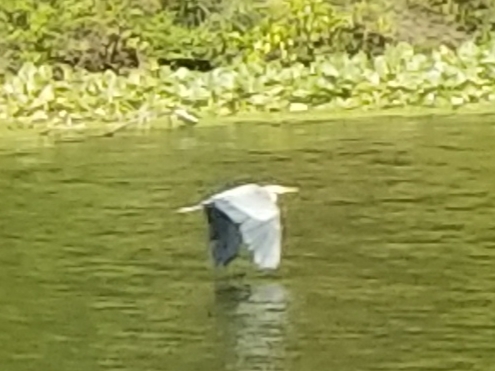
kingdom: Animalia
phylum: Chordata
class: Aves
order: Pelecaniformes
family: Ardeidae
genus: Ardea
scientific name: Ardea herodias
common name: Great blue heron
